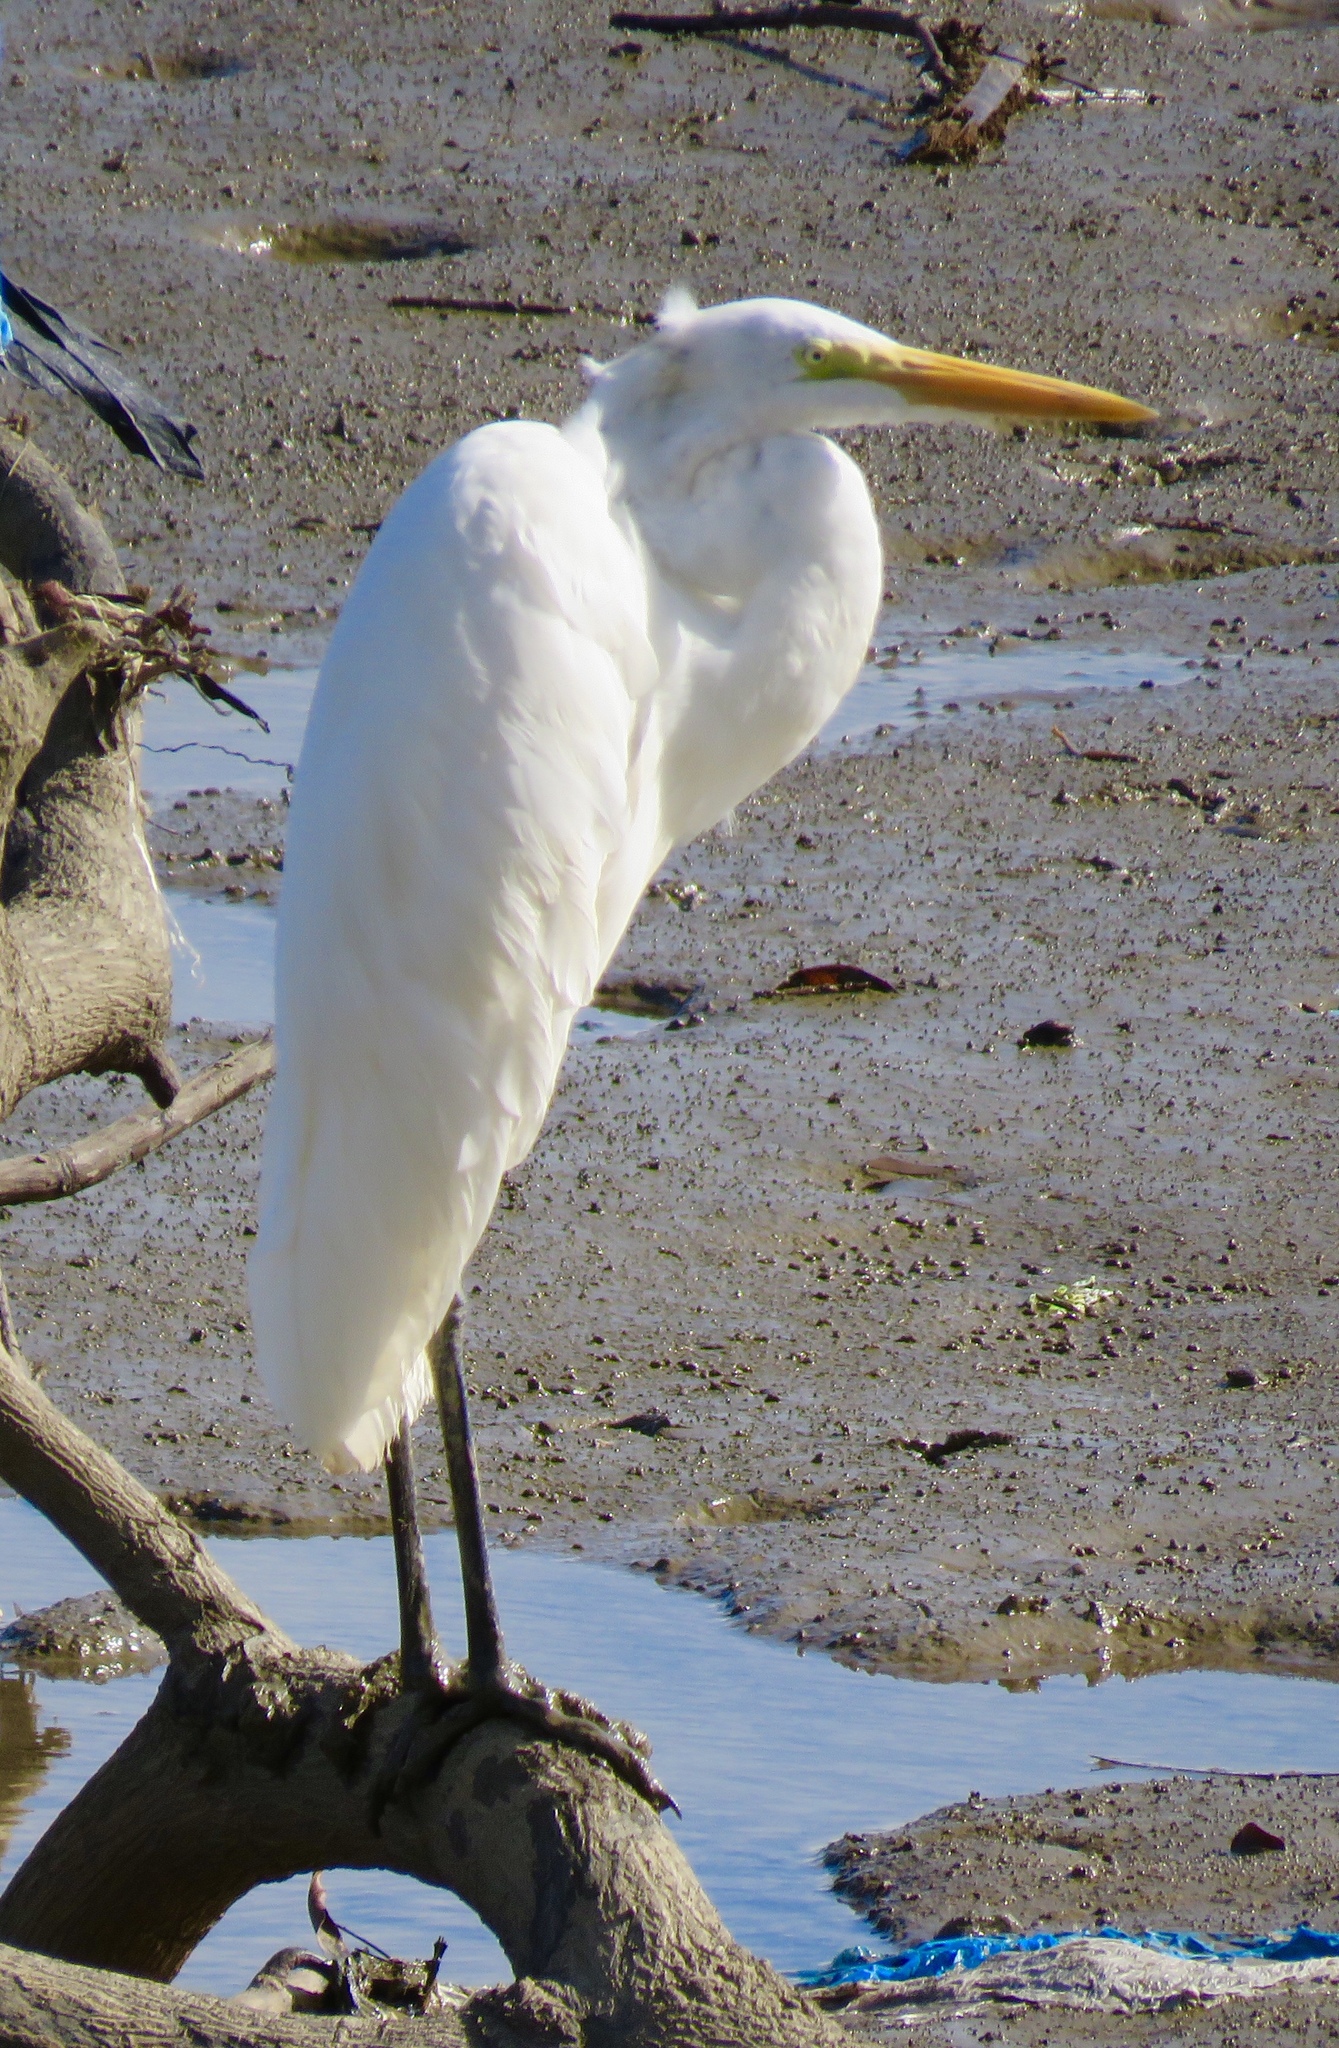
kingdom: Animalia
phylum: Chordata
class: Aves
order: Pelecaniformes
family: Ardeidae
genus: Ardea
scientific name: Ardea alba
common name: Great egret
